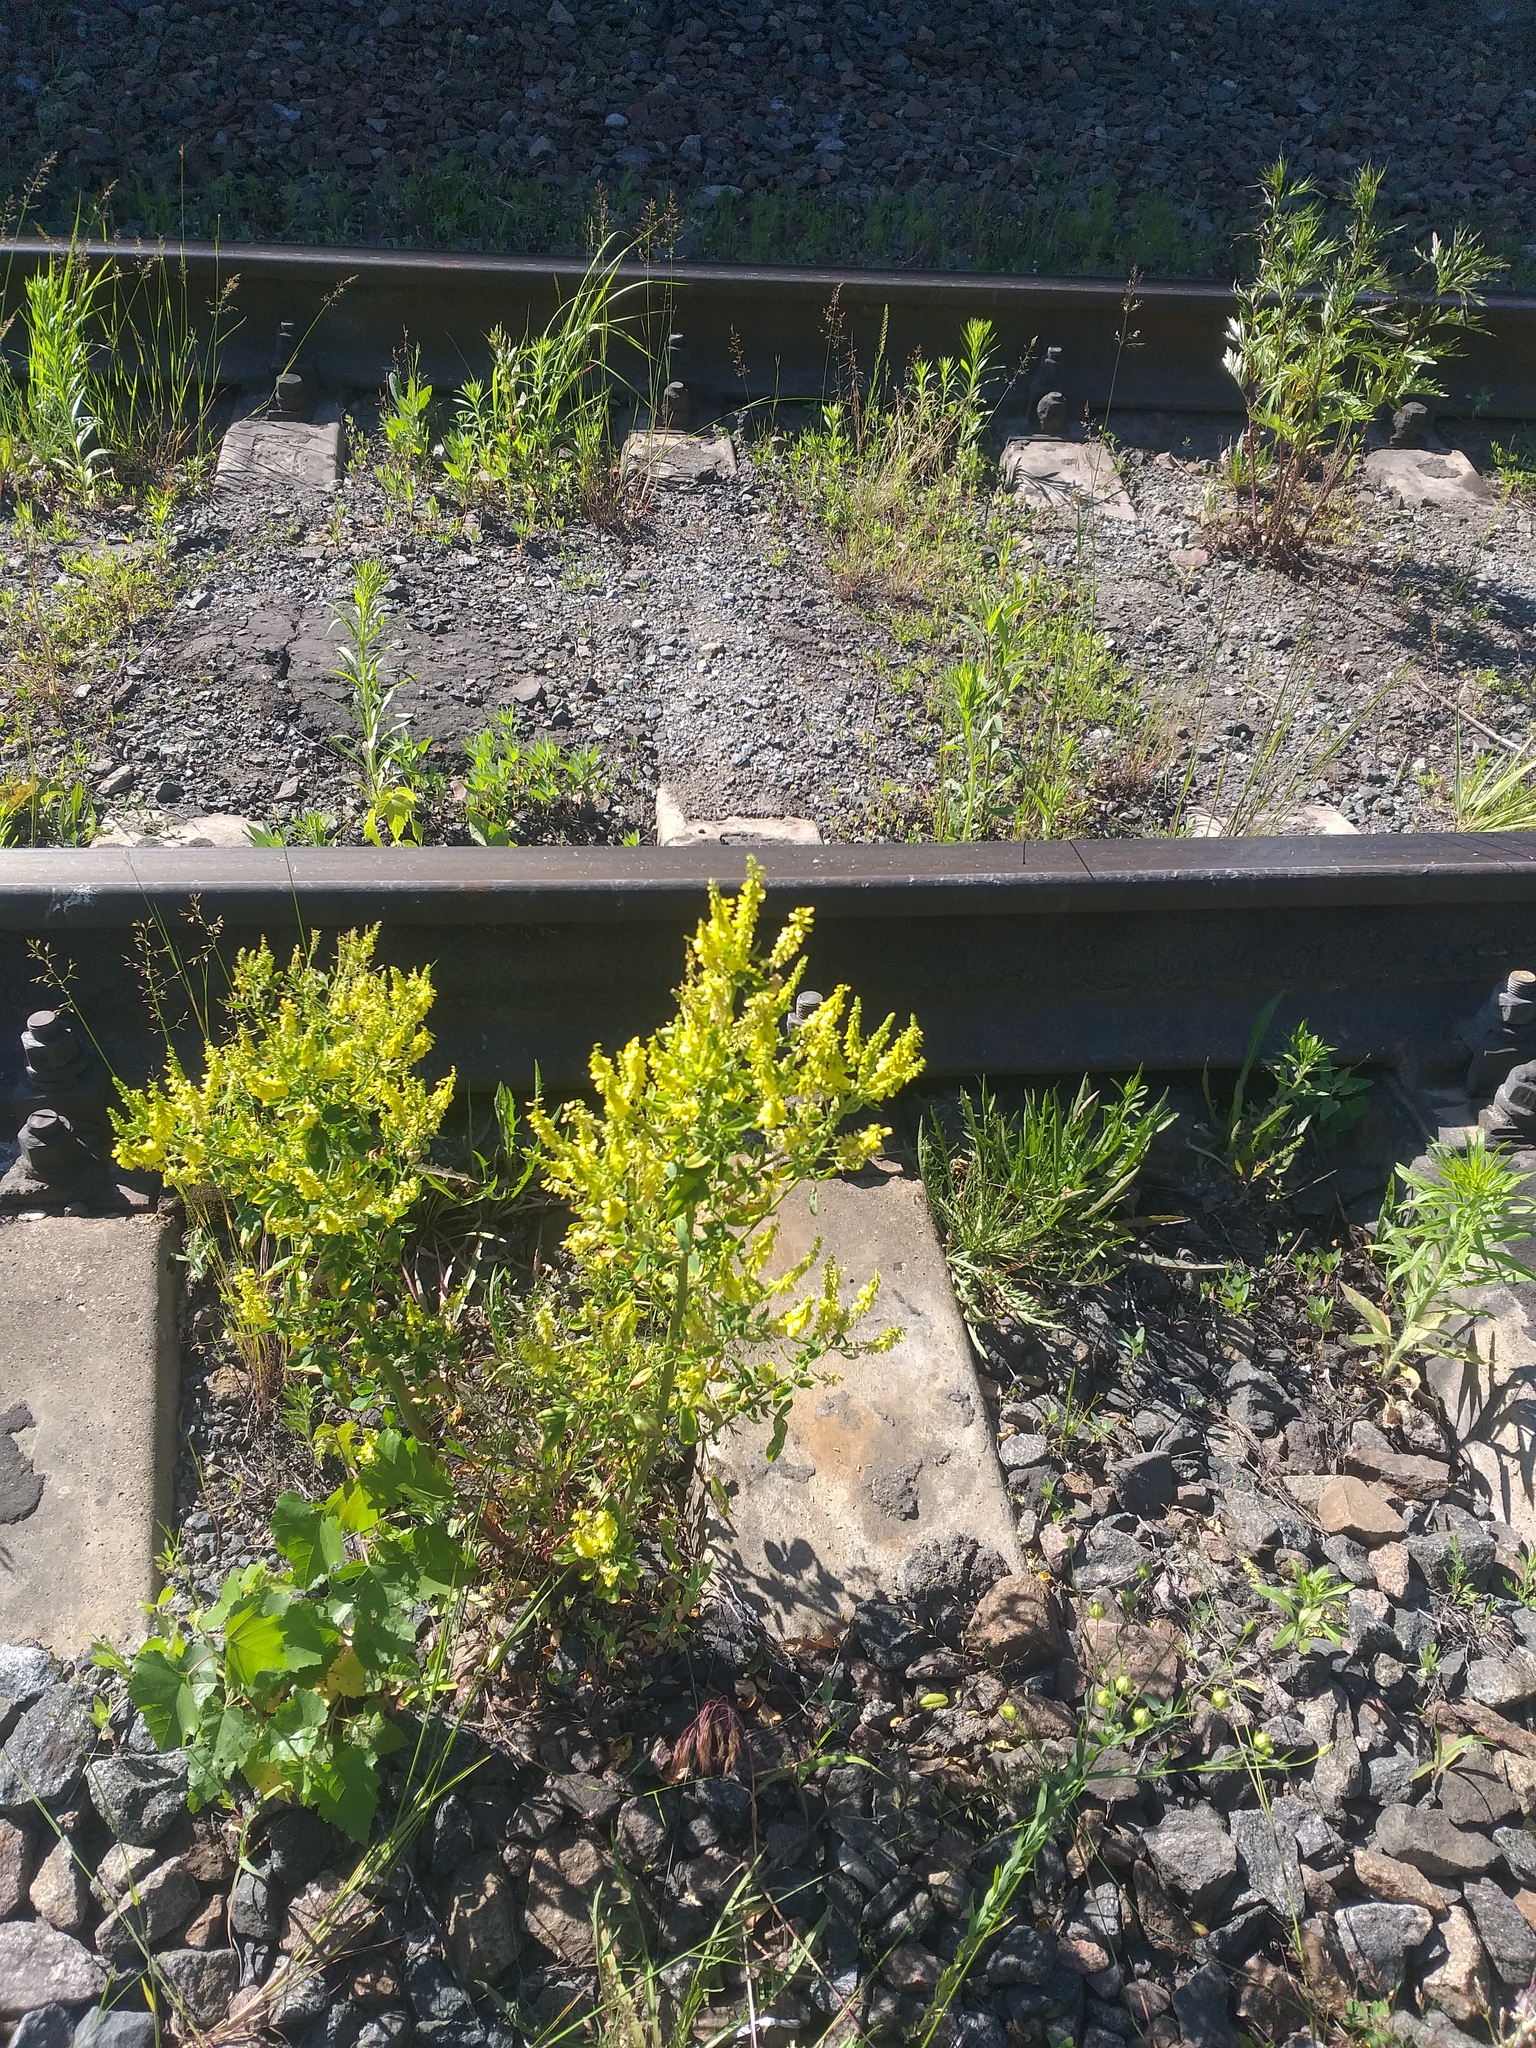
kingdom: Plantae
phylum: Tracheophyta
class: Magnoliopsida
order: Fabales
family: Fabaceae
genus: Melilotus
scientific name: Melilotus officinalis
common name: Sweetclover
